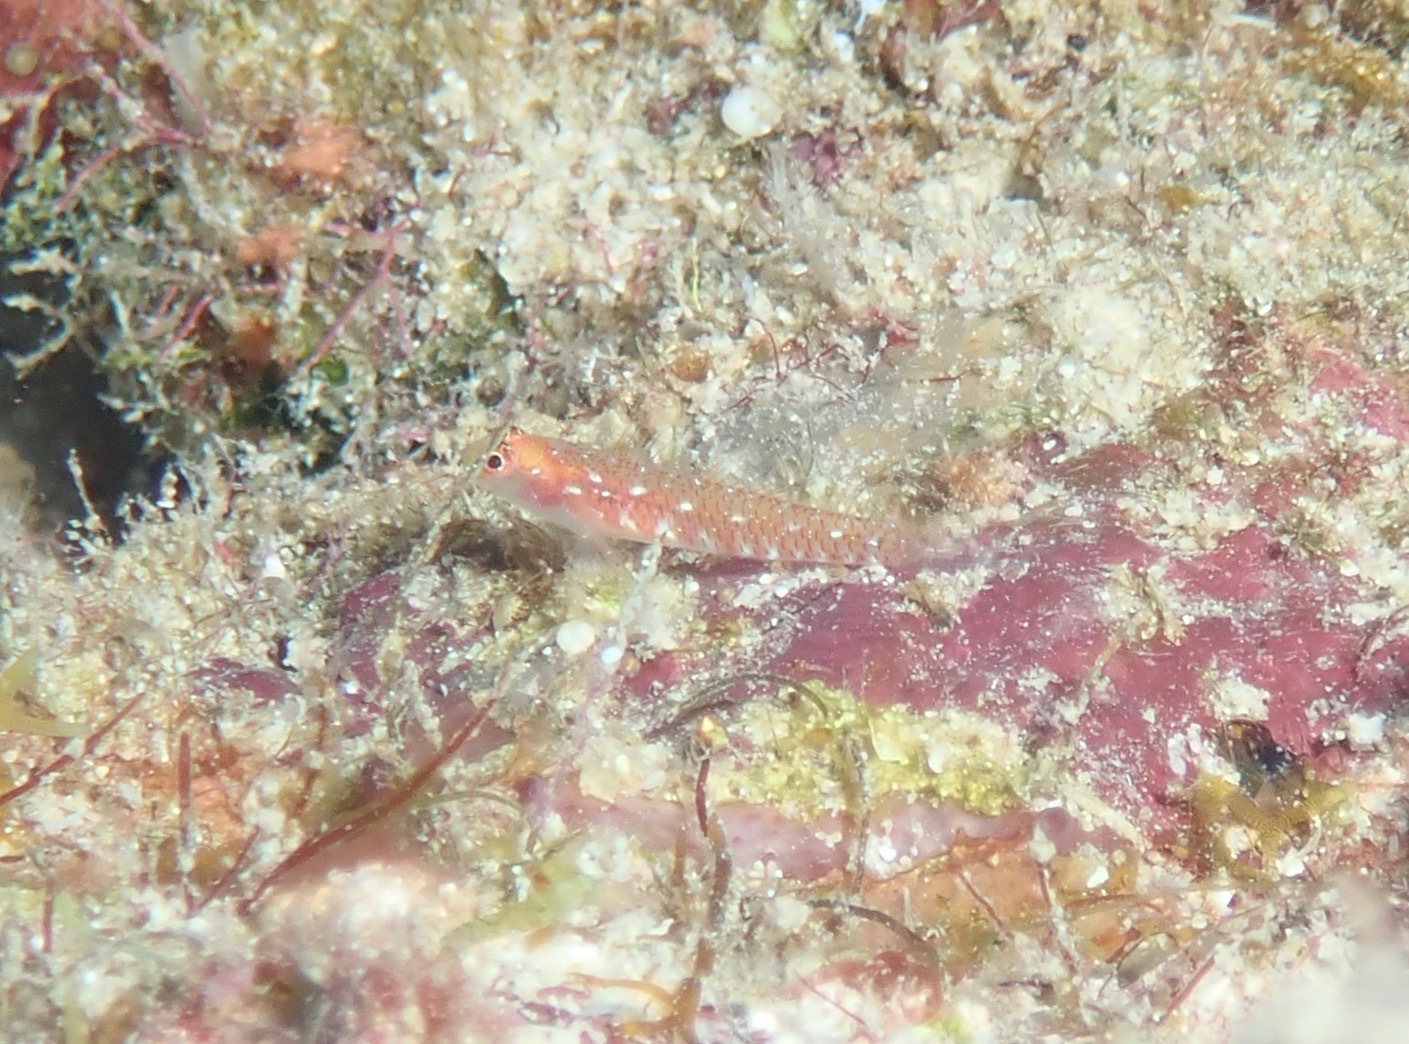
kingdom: Animalia
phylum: Chordata
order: Perciformes
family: Gobiidae
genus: Eviota
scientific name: Eviota fallax
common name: Twin dwarfgoby
